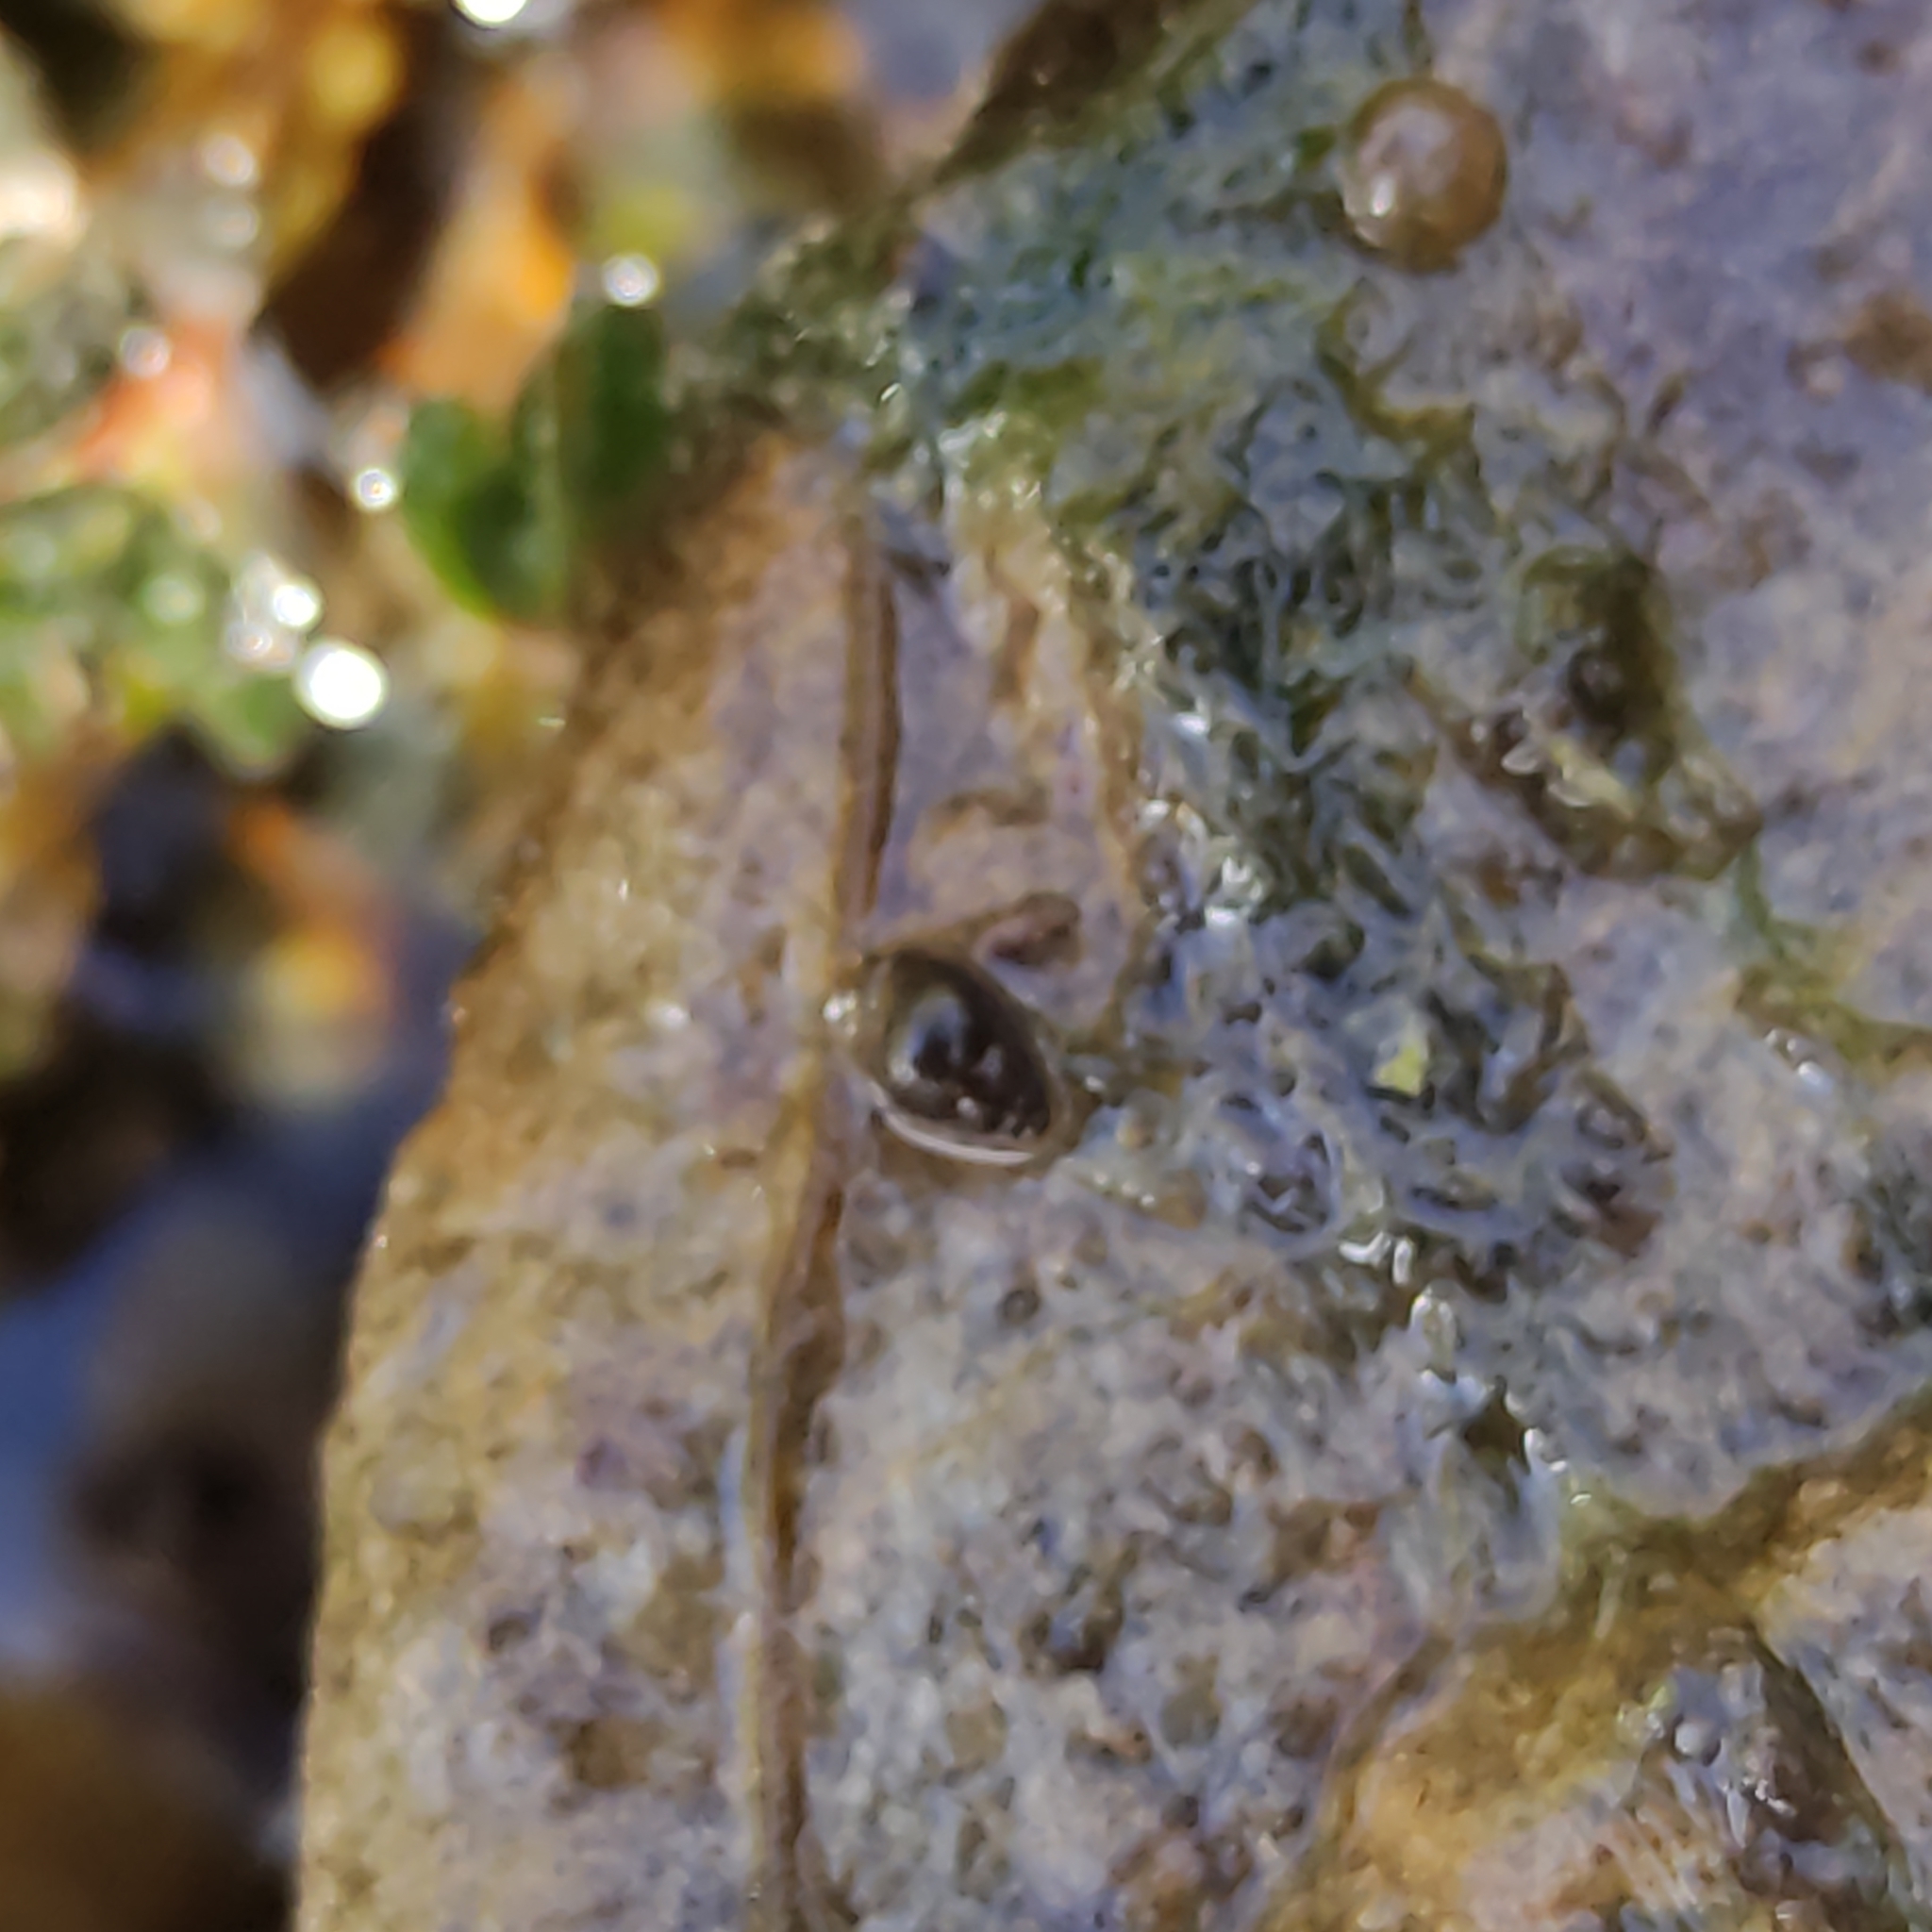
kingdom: Animalia
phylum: Mollusca
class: Gastropoda
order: Littorinimorpha
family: Tateidae
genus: Potamopyrgus
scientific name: Potamopyrgus antipodarum
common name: Jenkins' spire snail
